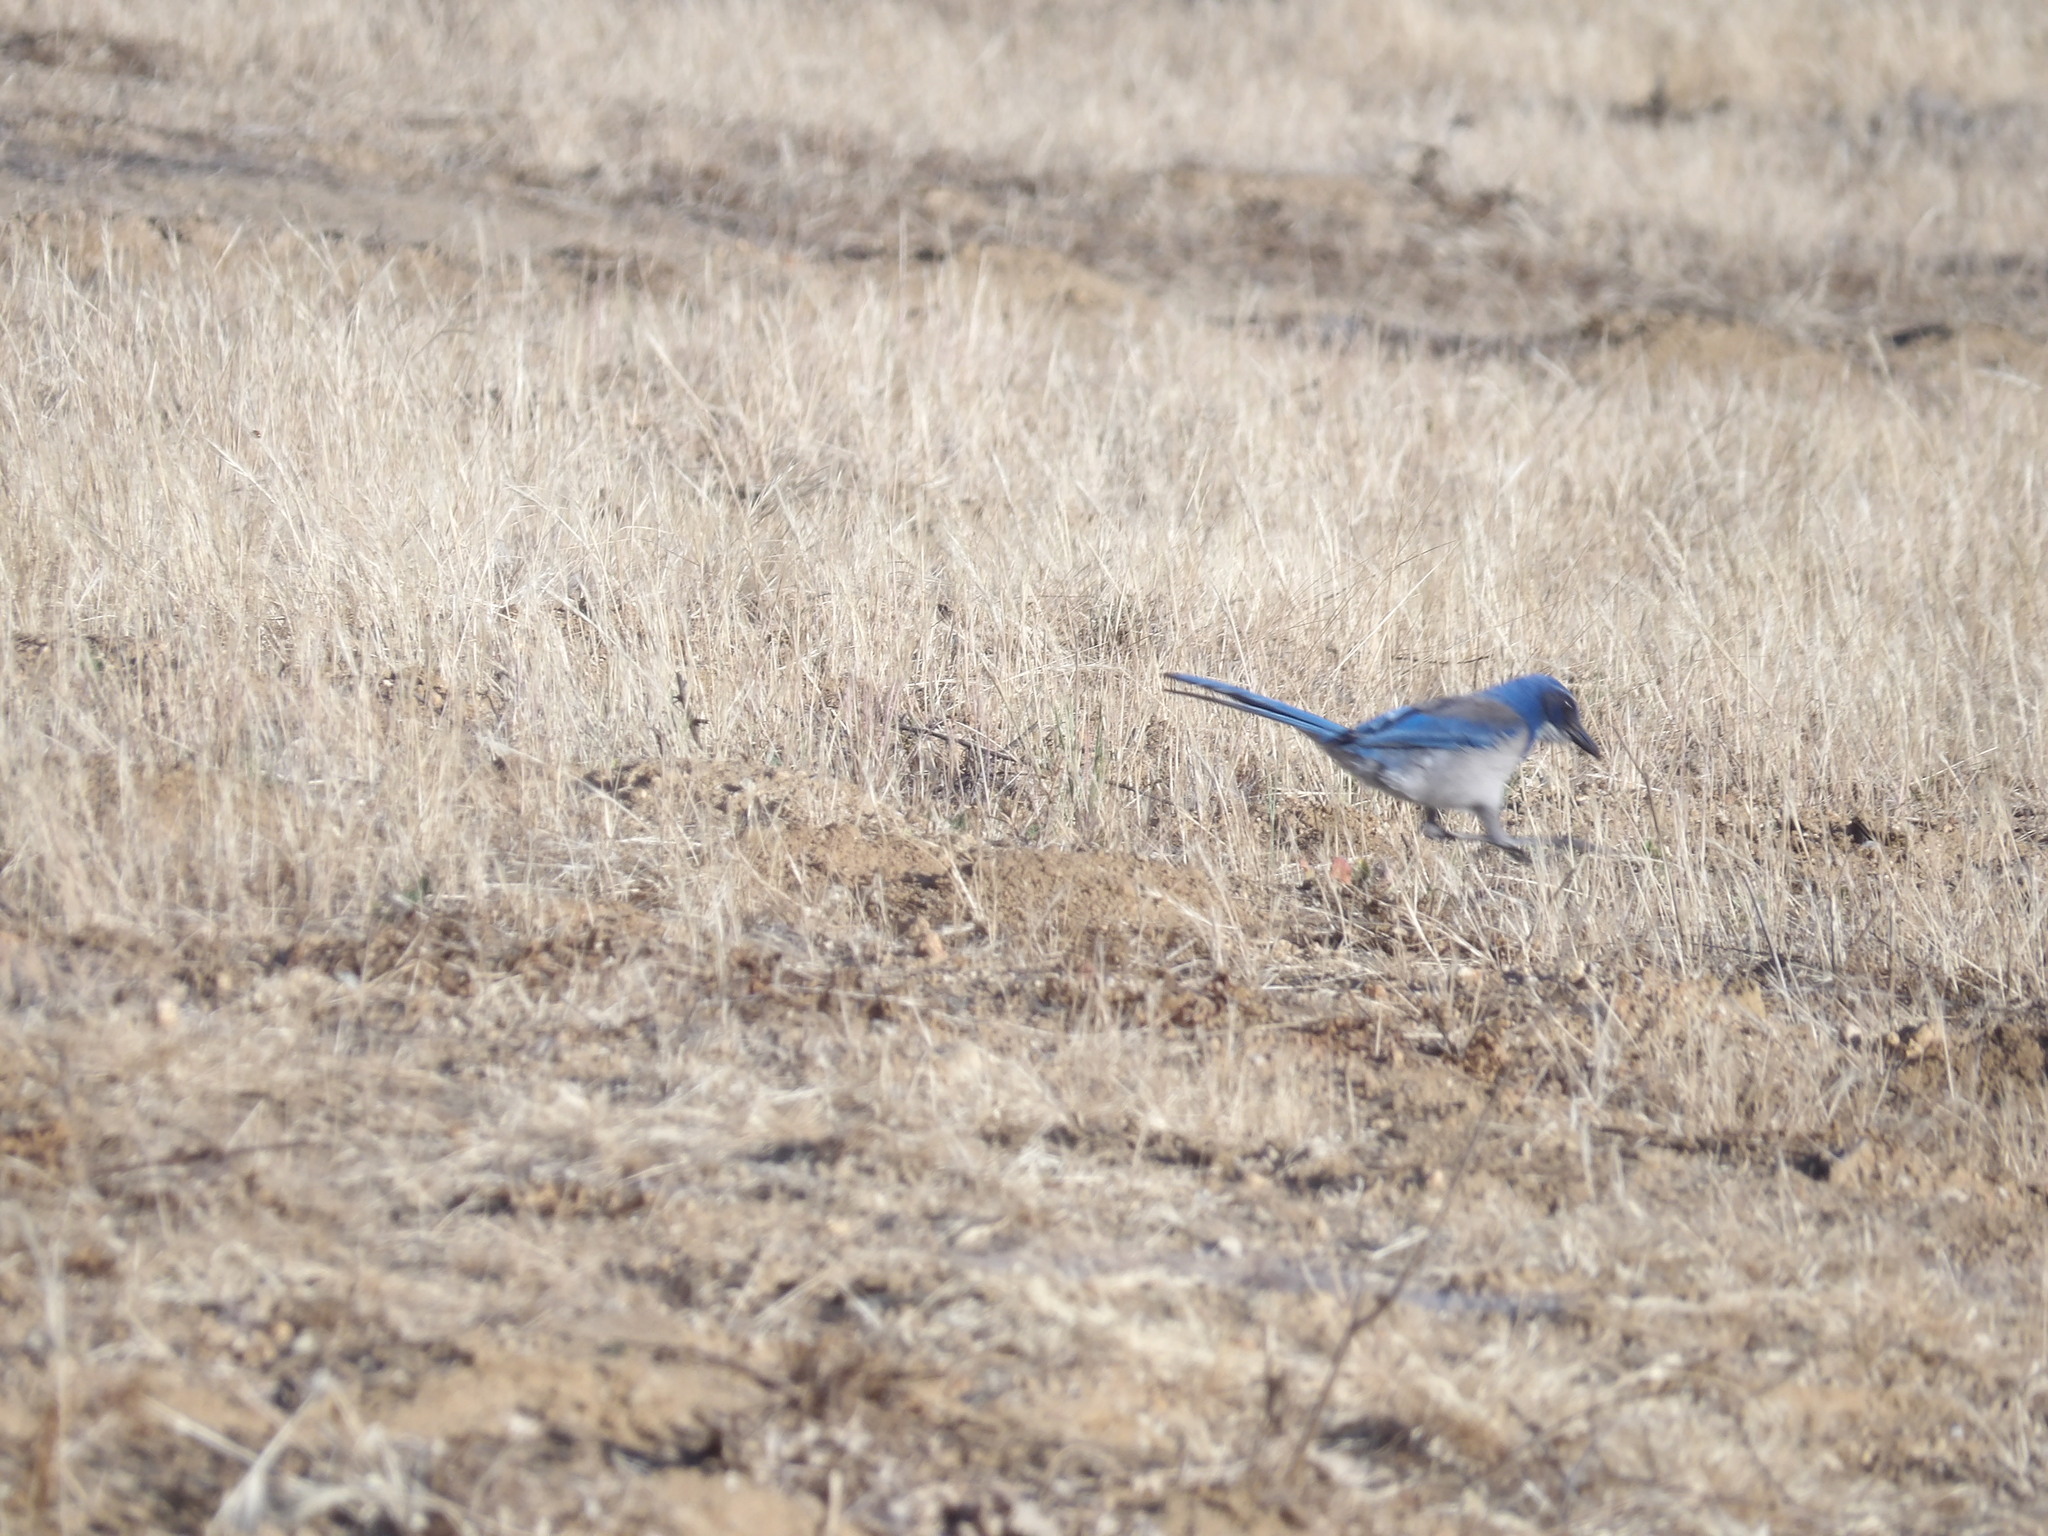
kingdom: Animalia
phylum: Chordata
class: Aves
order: Passeriformes
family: Corvidae
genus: Aphelocoma
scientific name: Aphelocoma californica
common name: California scrub-jay
